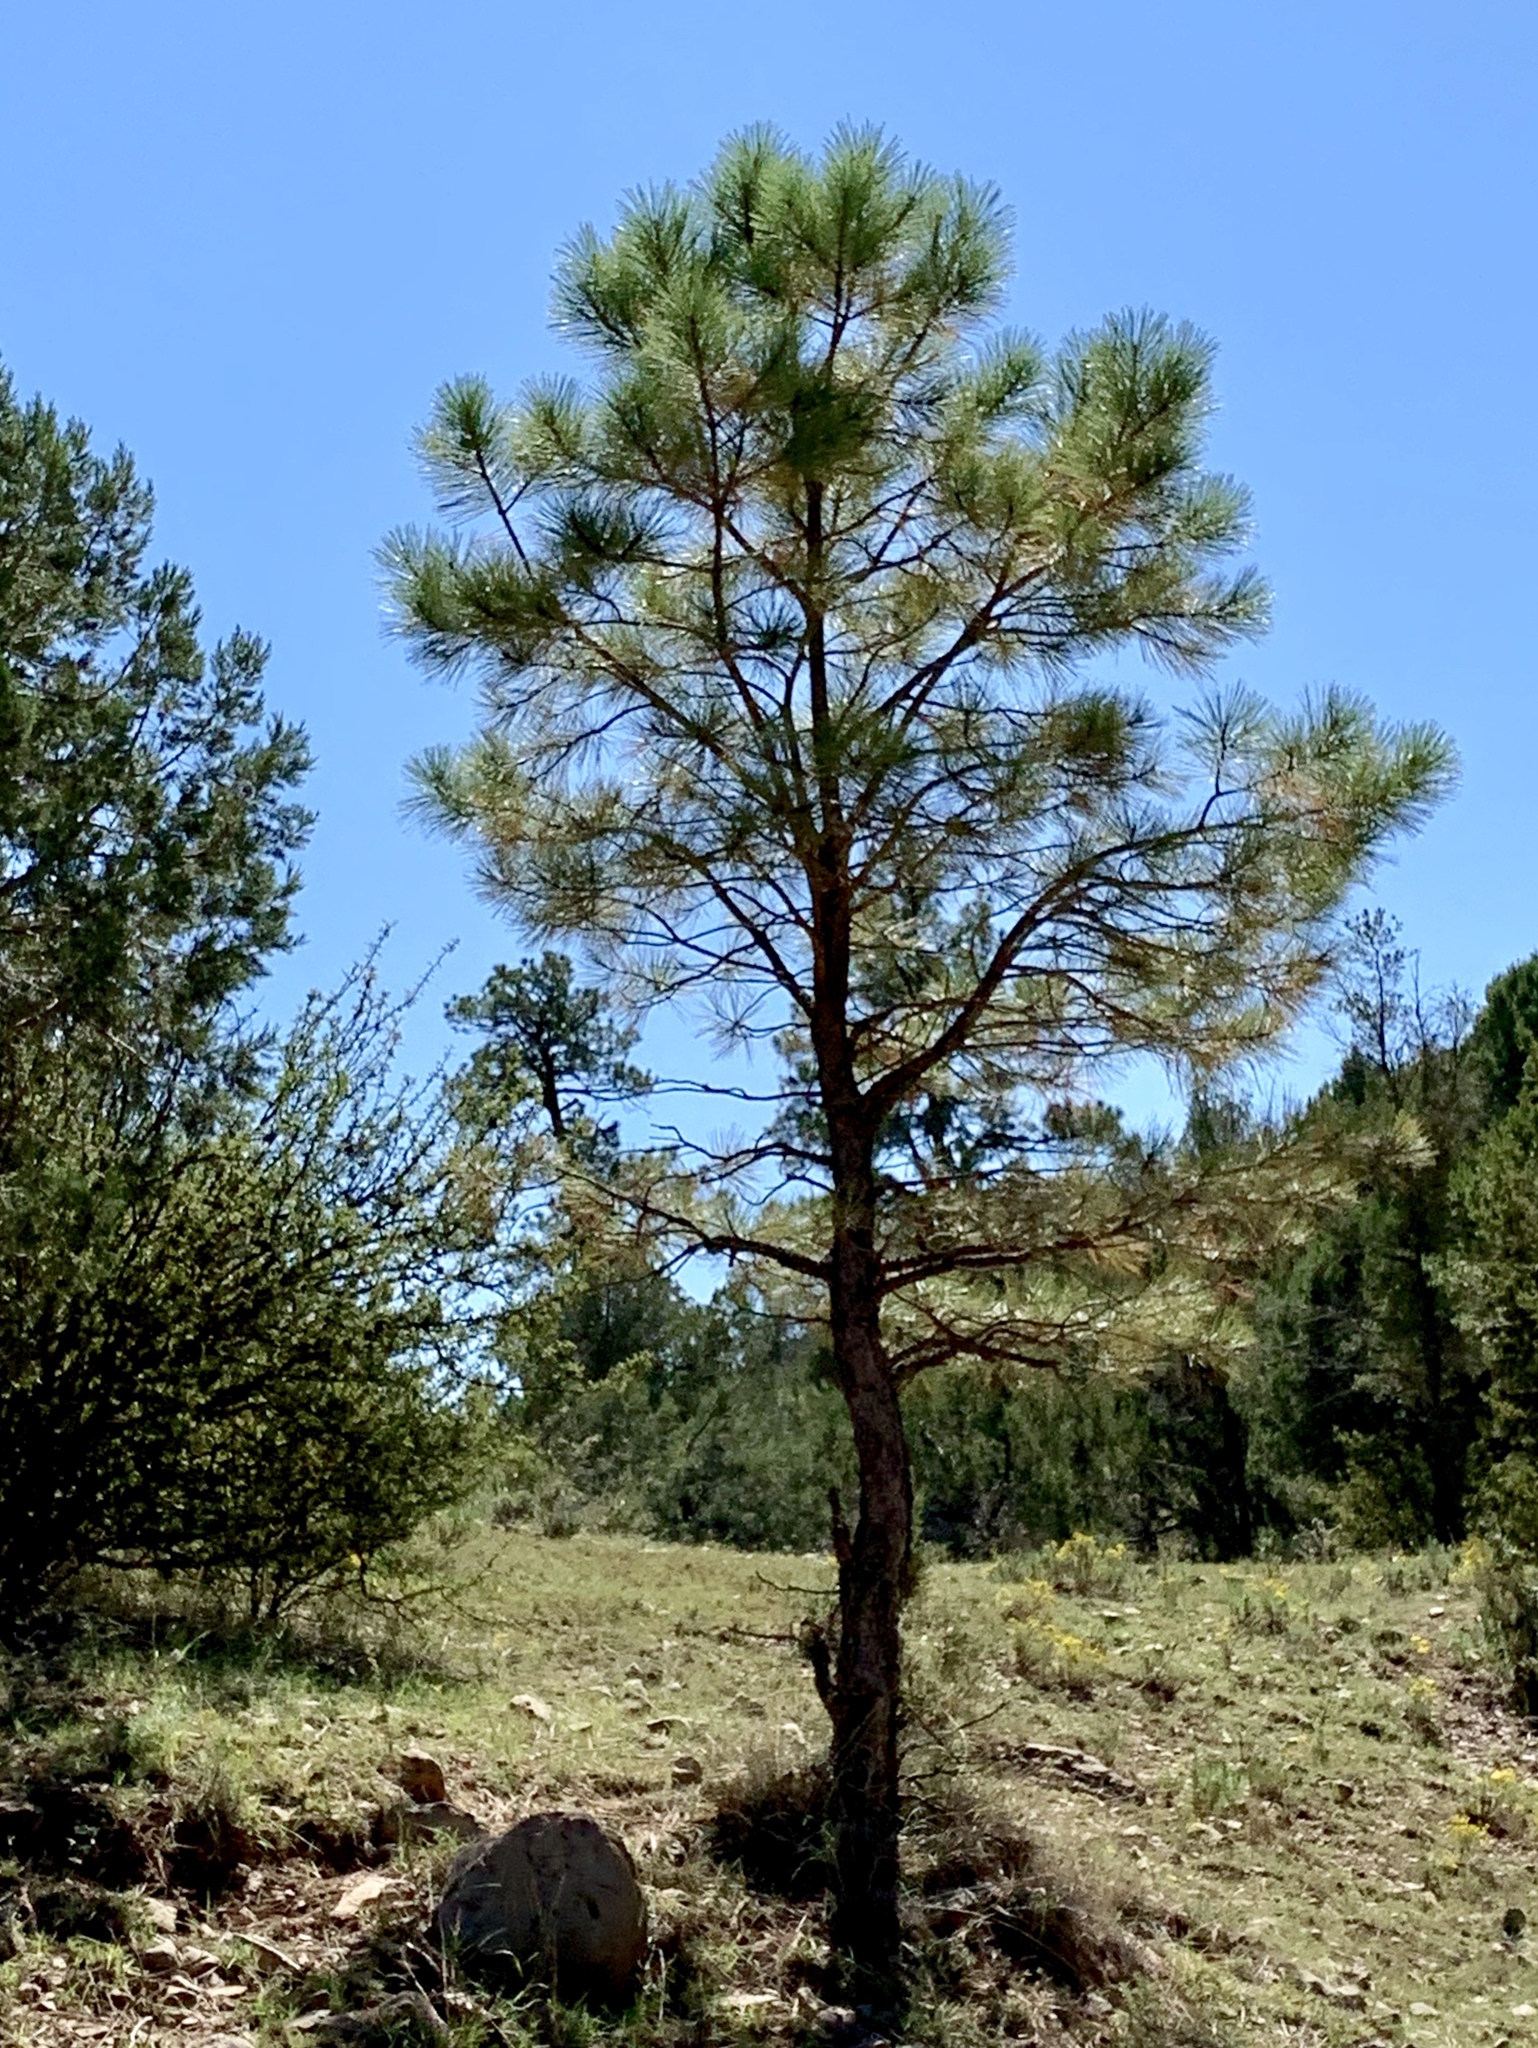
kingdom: Plantae
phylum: Tracheophyta
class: Pinopsida
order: Pinales
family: Pinaceae
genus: Pinus
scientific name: Pinus ponderosa
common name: Western yellow-pine
